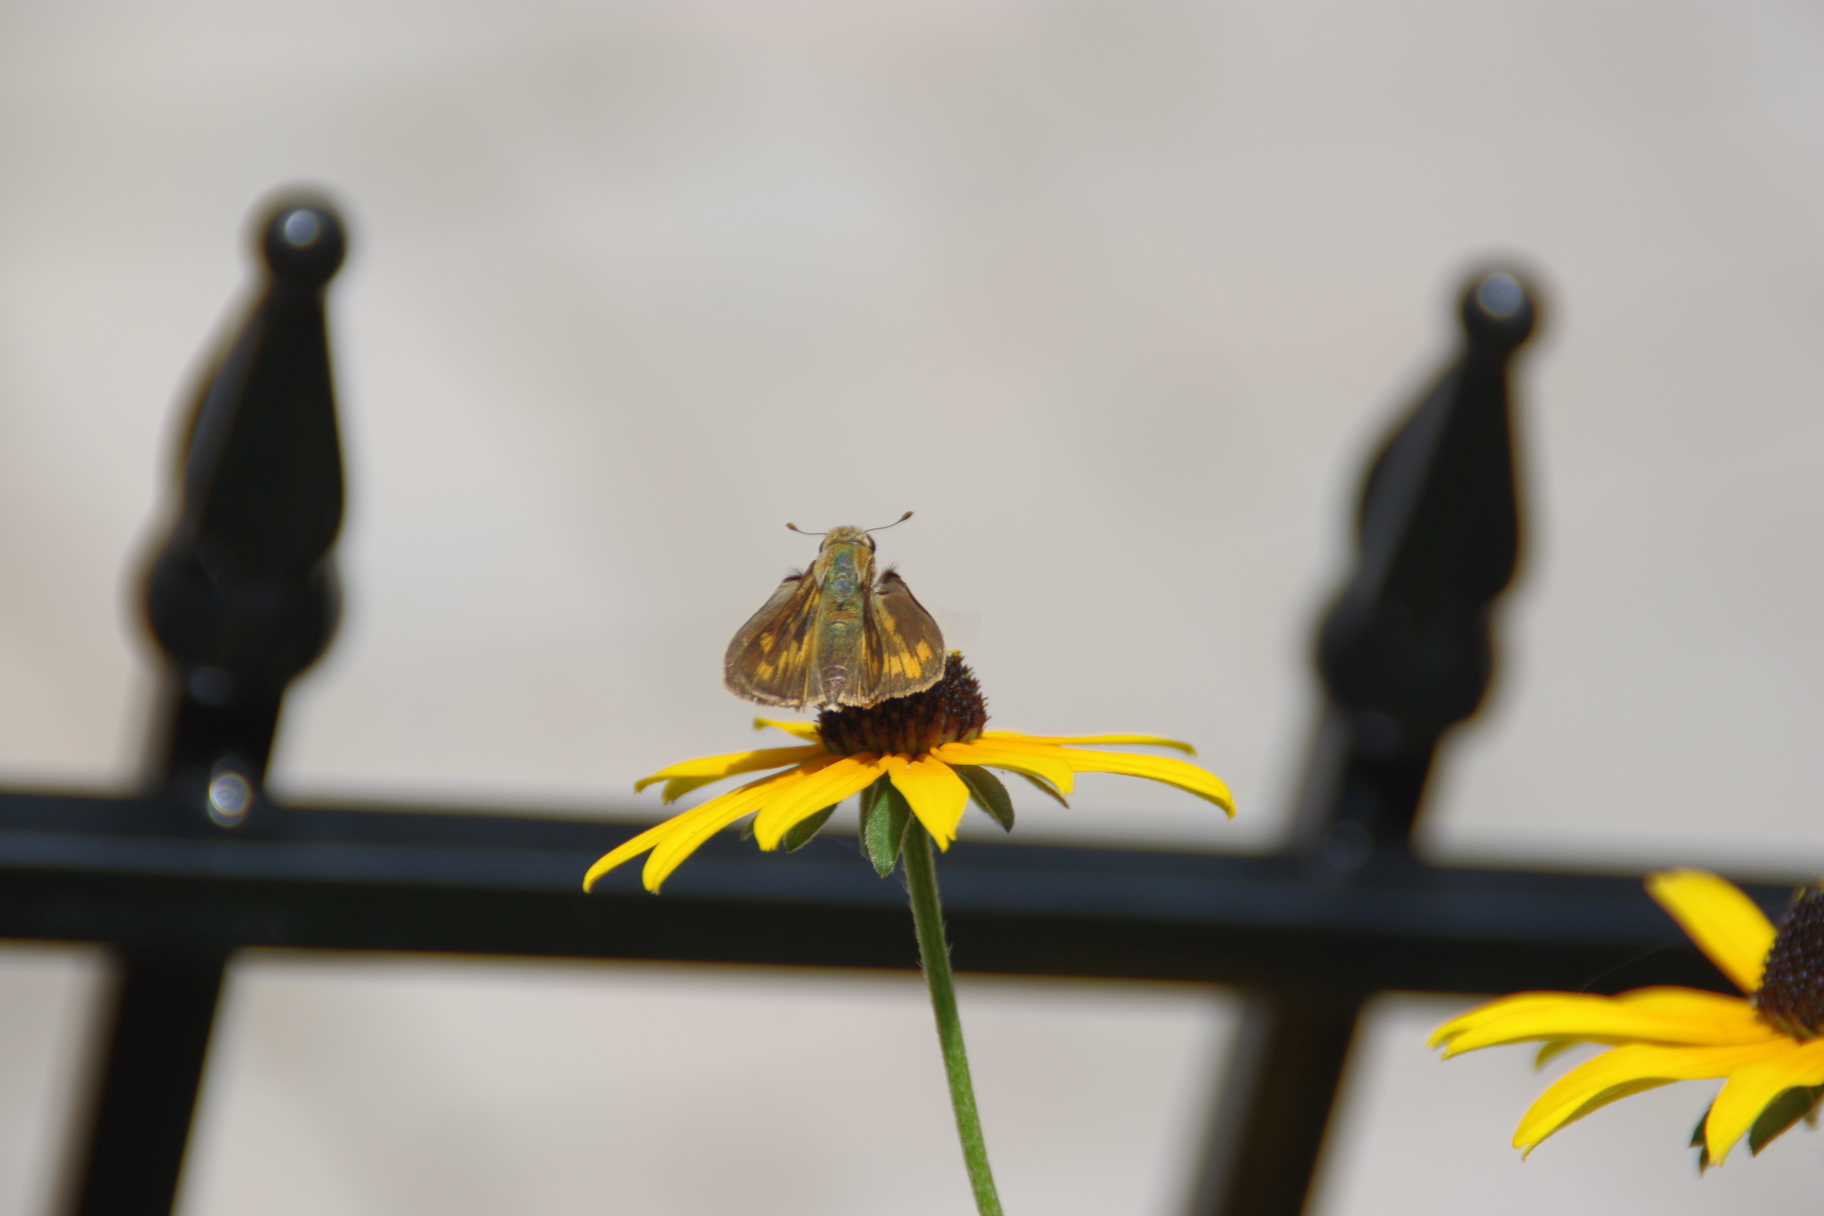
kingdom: Animalia
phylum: Arthropoda
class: Insecta
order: Lepidoptera
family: Hesperiidae
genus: Hylephila
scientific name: Hylephila phyleus
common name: Fiery skipper
